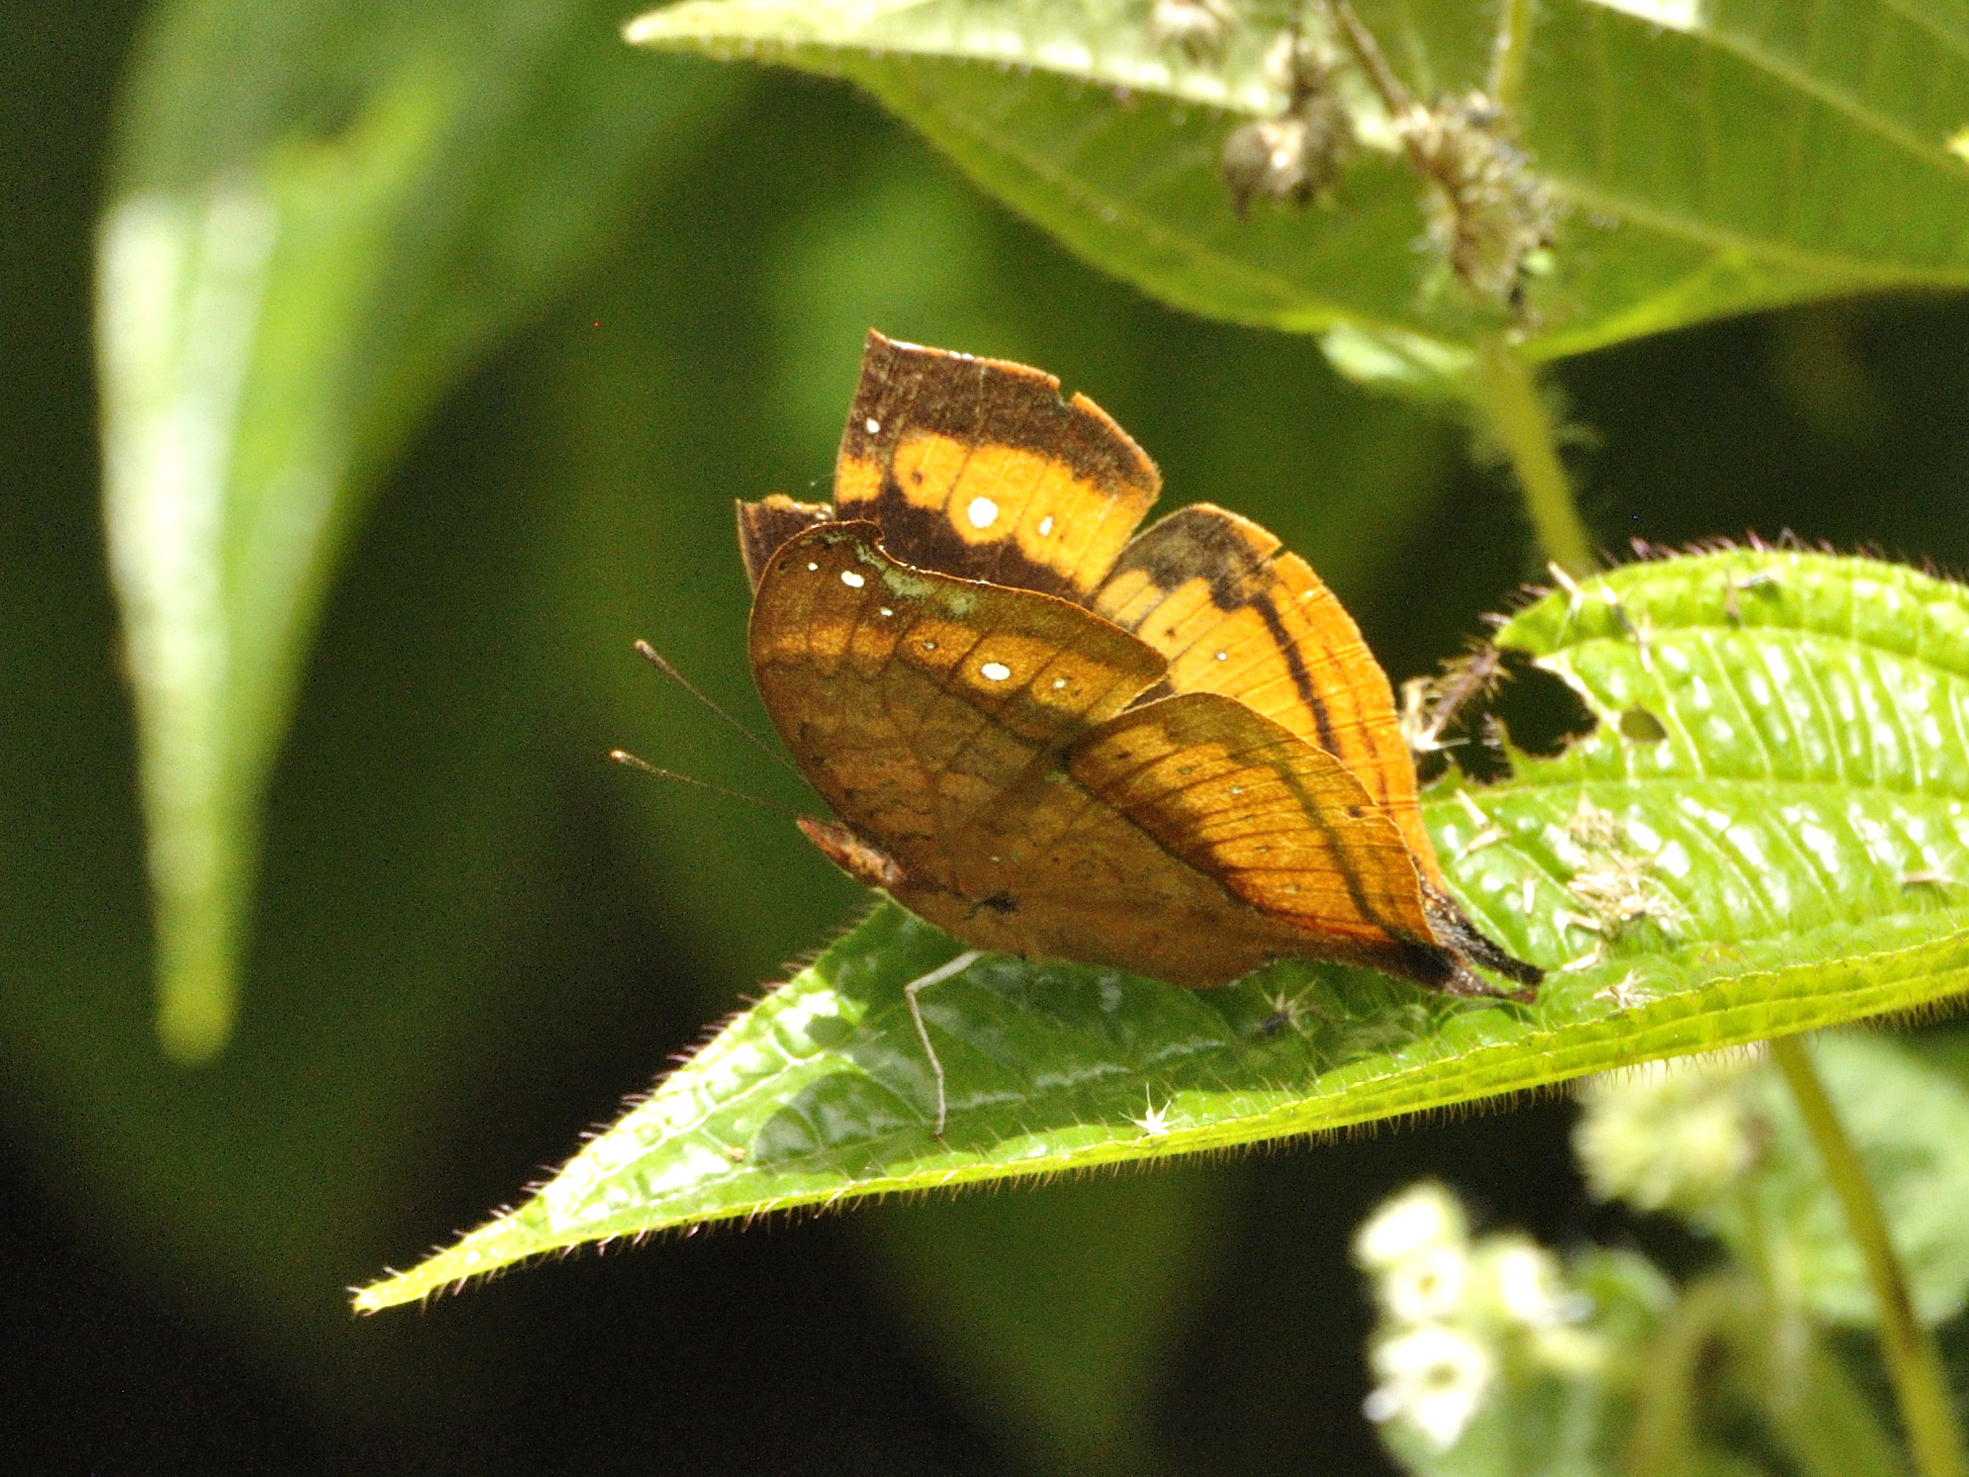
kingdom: Animalia
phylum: Arthropoda
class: Insecta
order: Lepidoptera
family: Nymphalidae
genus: Precis
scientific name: Precis eurodoce
